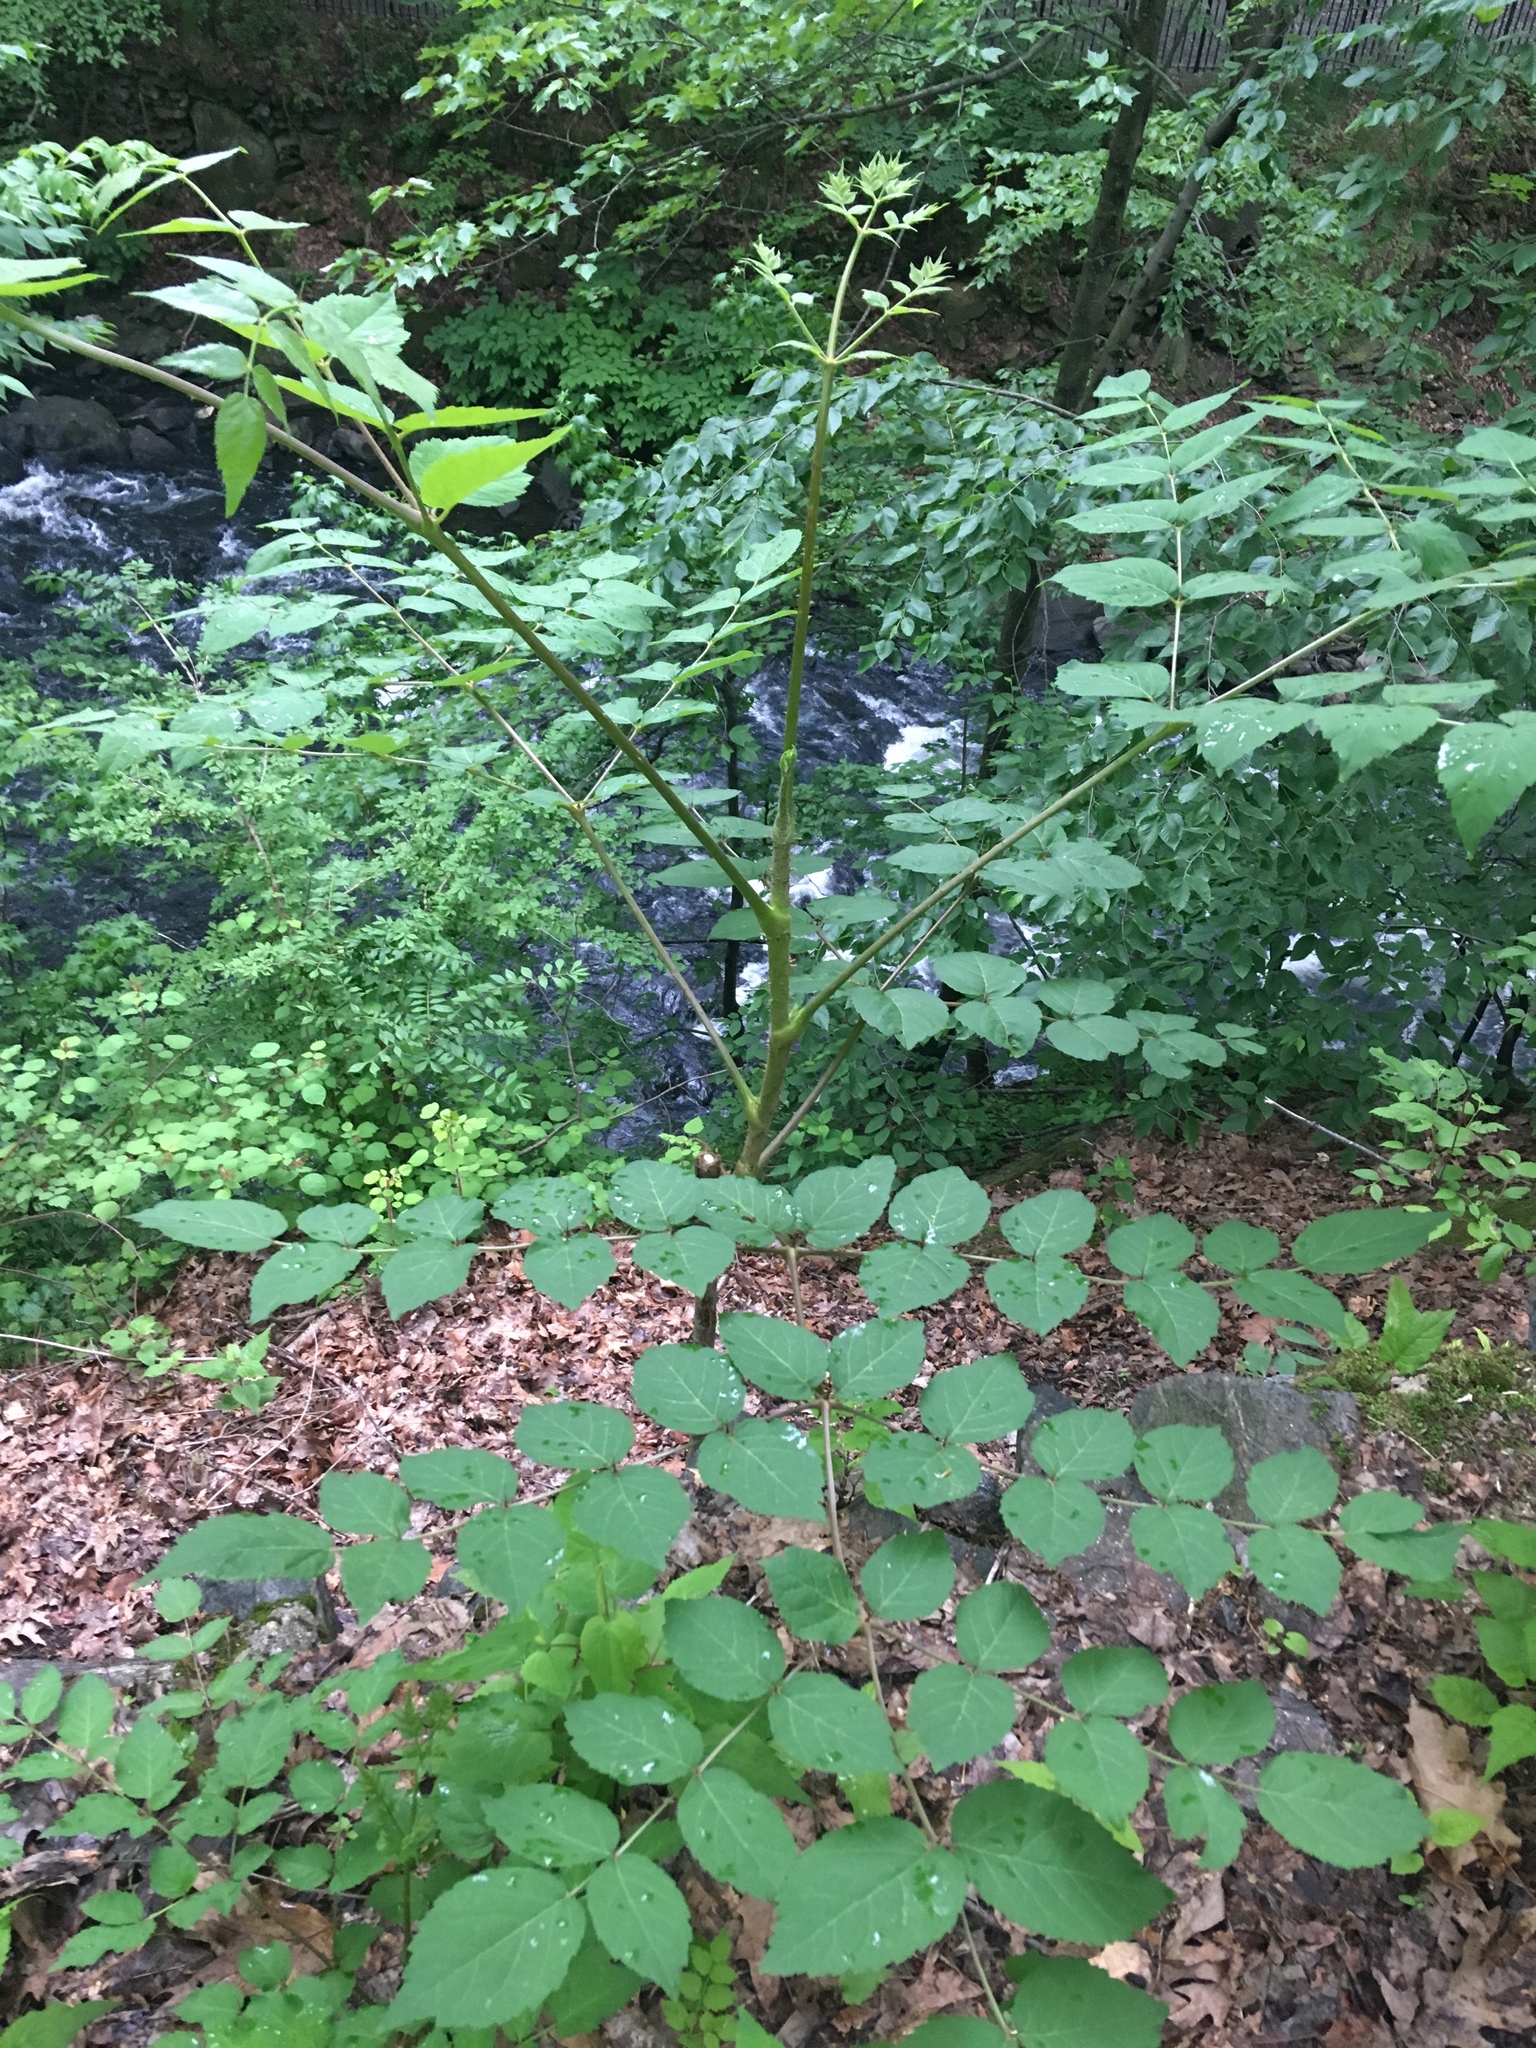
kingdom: Plantae
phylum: Tracheophyta
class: Magnoliopsida
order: Apiales
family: Araliaceae
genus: Aralia
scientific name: Aralia elata
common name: Japanese angelica-tree
